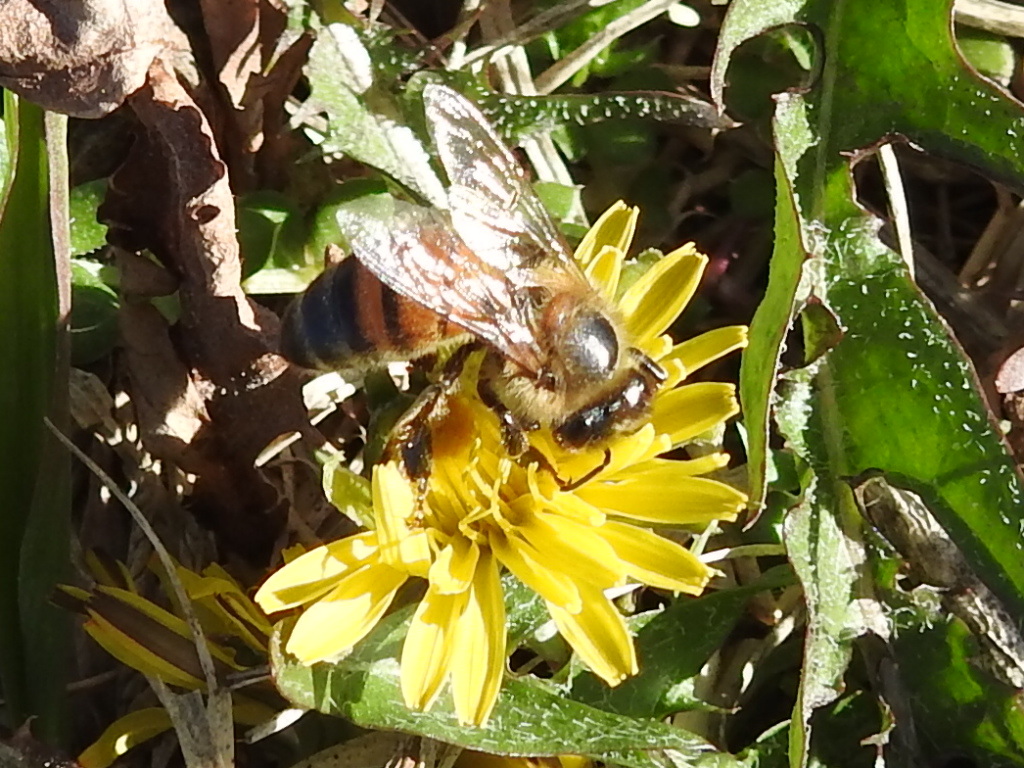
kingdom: Animalia
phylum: Arthropoda
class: Insecta
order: Hymenoptera
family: Apidae
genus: Apis
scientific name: Apis mellifera
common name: Honey bee
